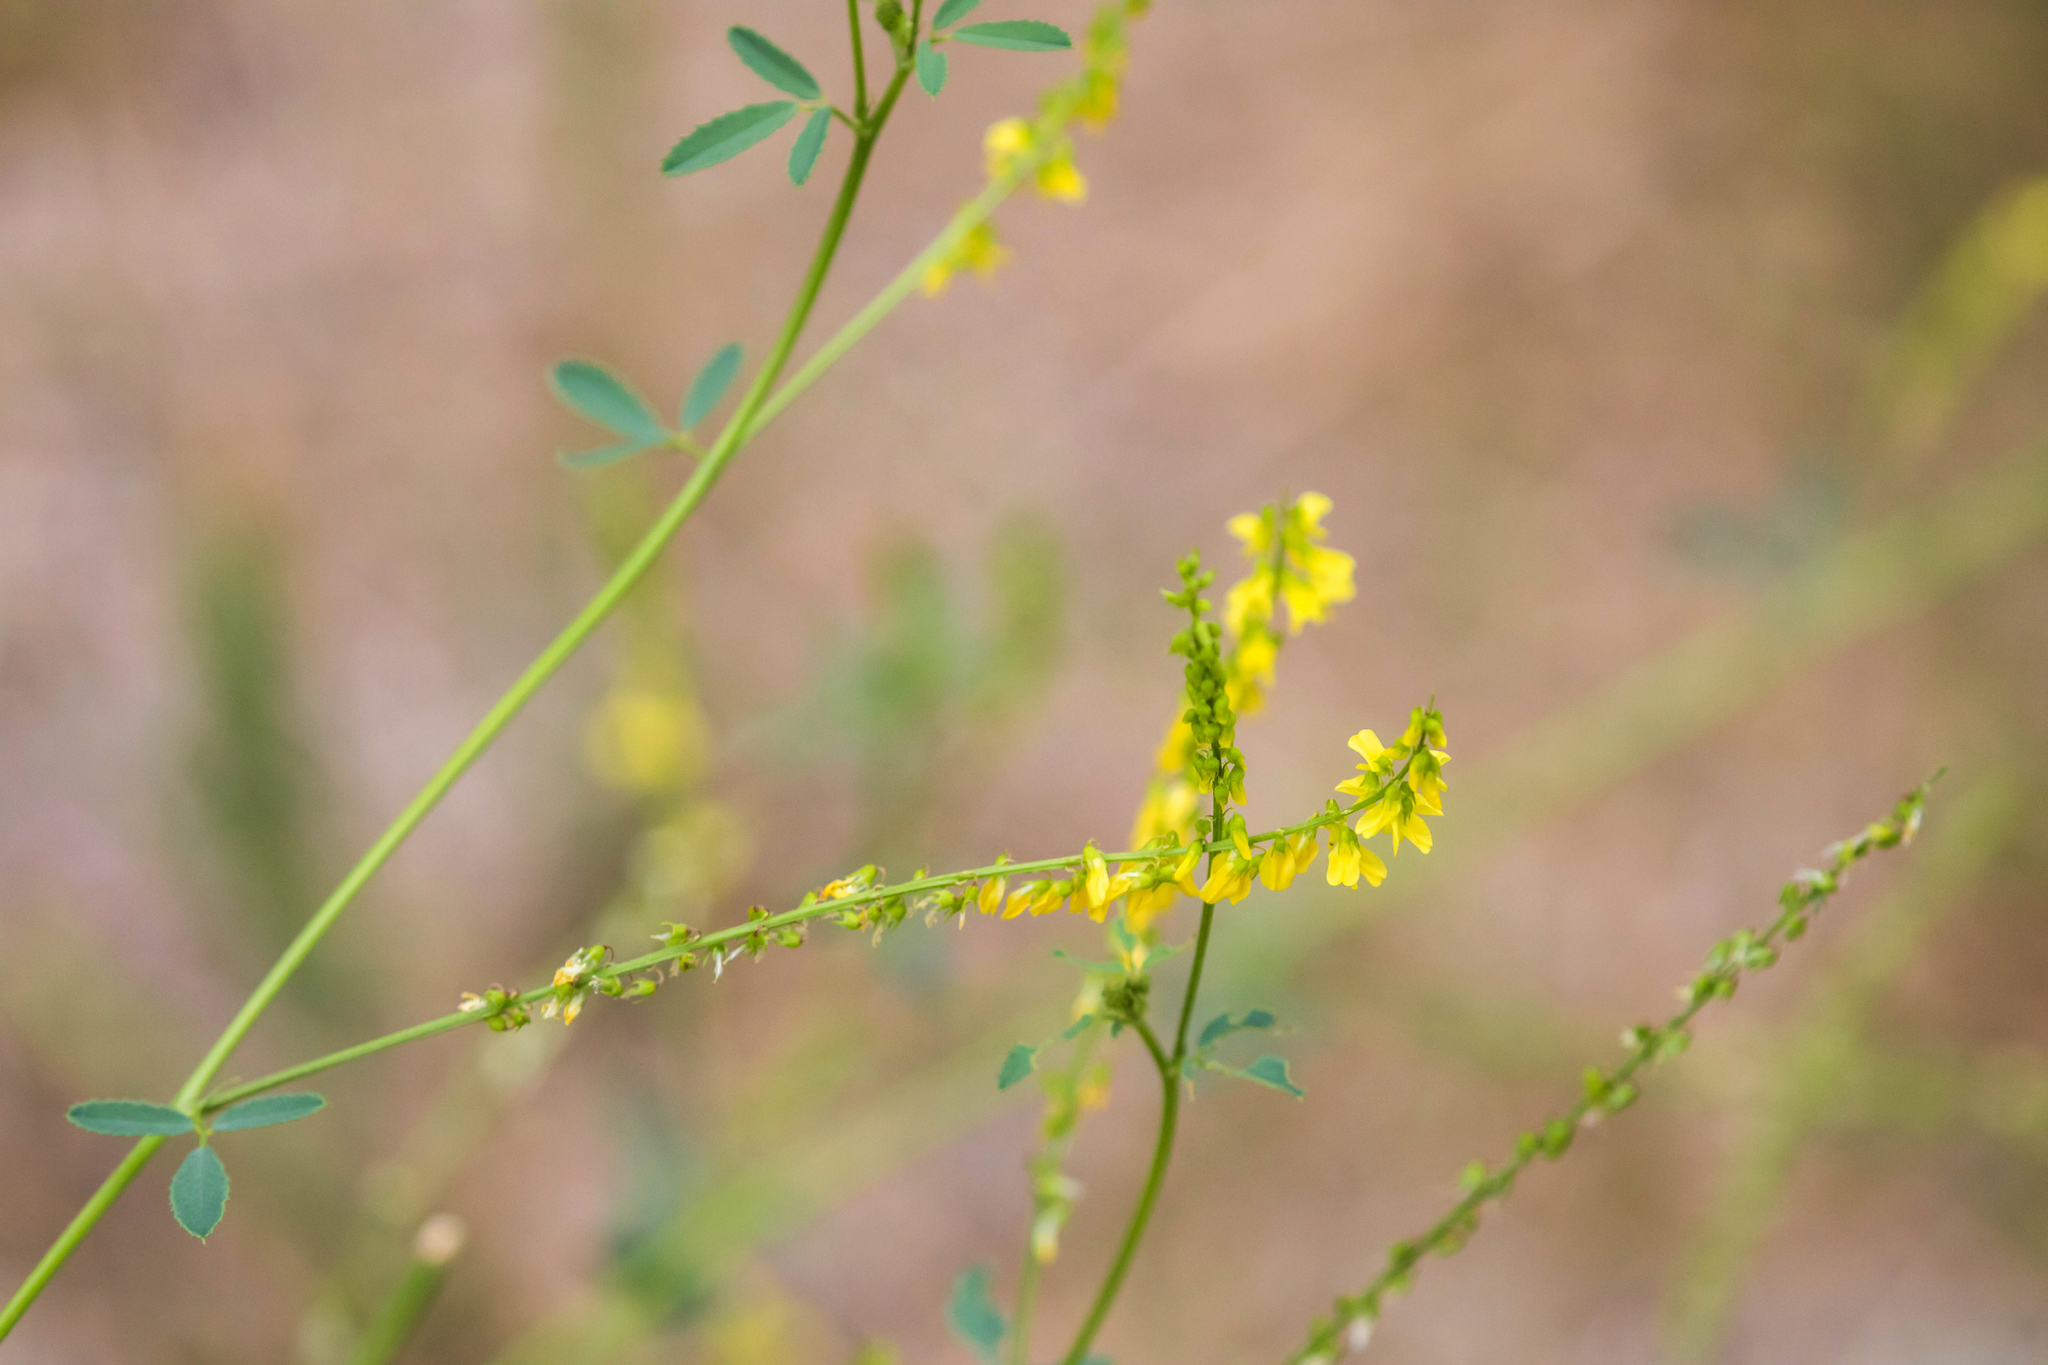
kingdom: Plantae
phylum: Tracheophyta
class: Magnoliopsida
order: Fabales
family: Fabaceae
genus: Melilotus
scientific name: Melilotus officinalis
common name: Sweetclover
